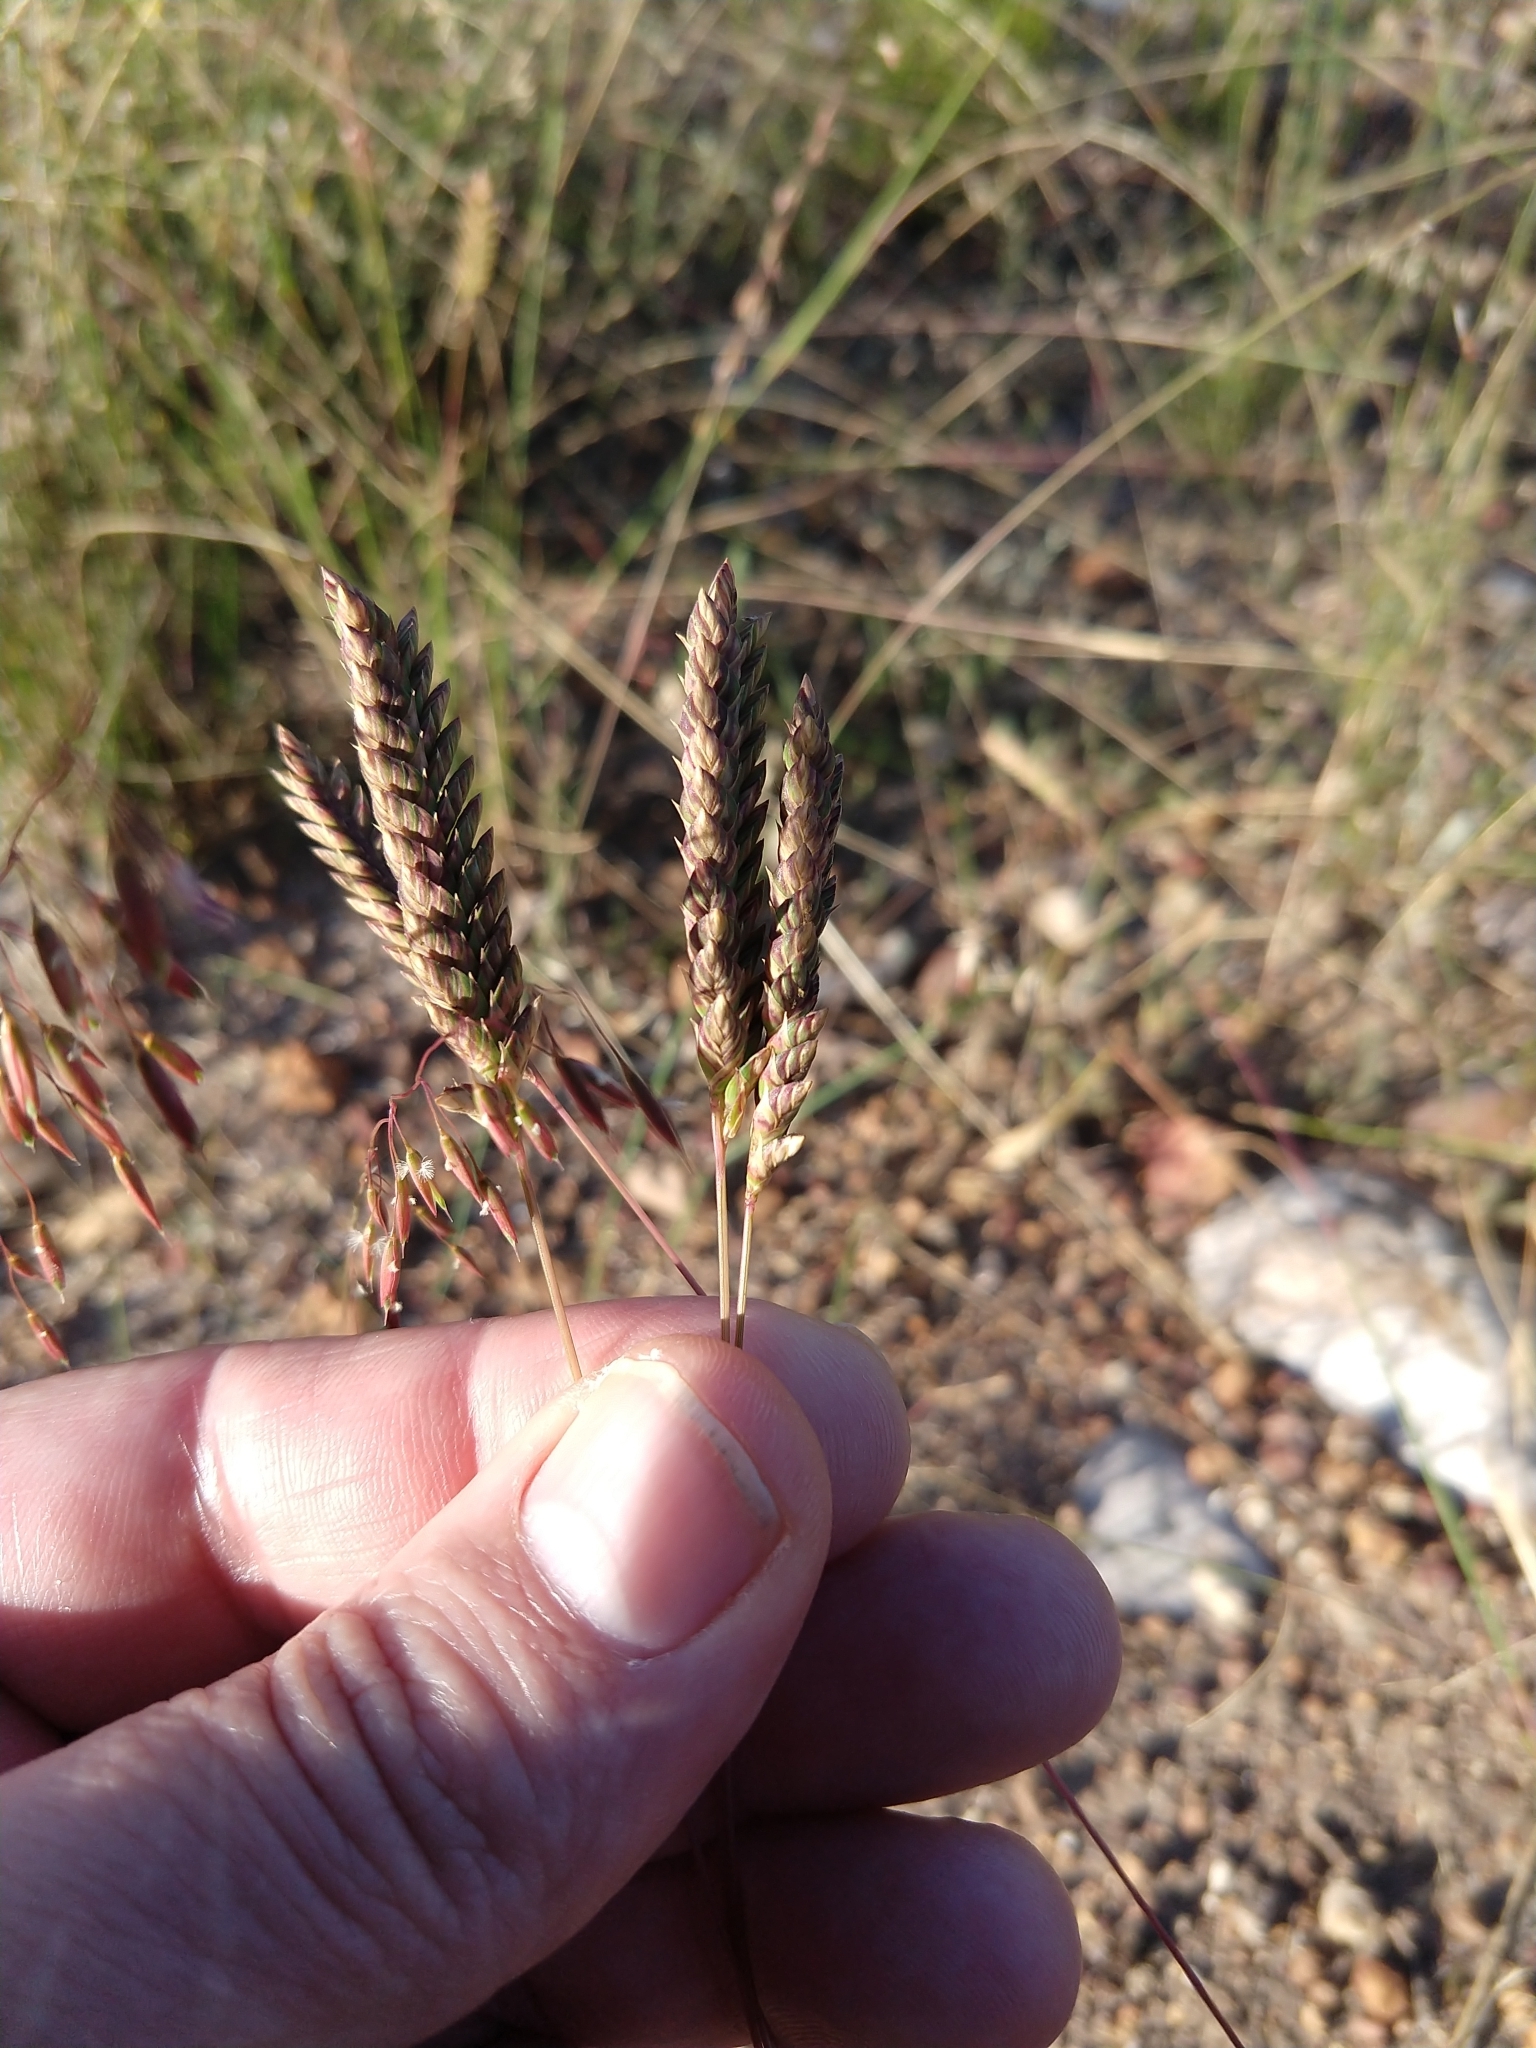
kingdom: Plantae
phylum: Tracheophyta
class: Liliopsida
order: Poales
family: Poaceae
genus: Tribolium
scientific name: Tribolium uniolae
